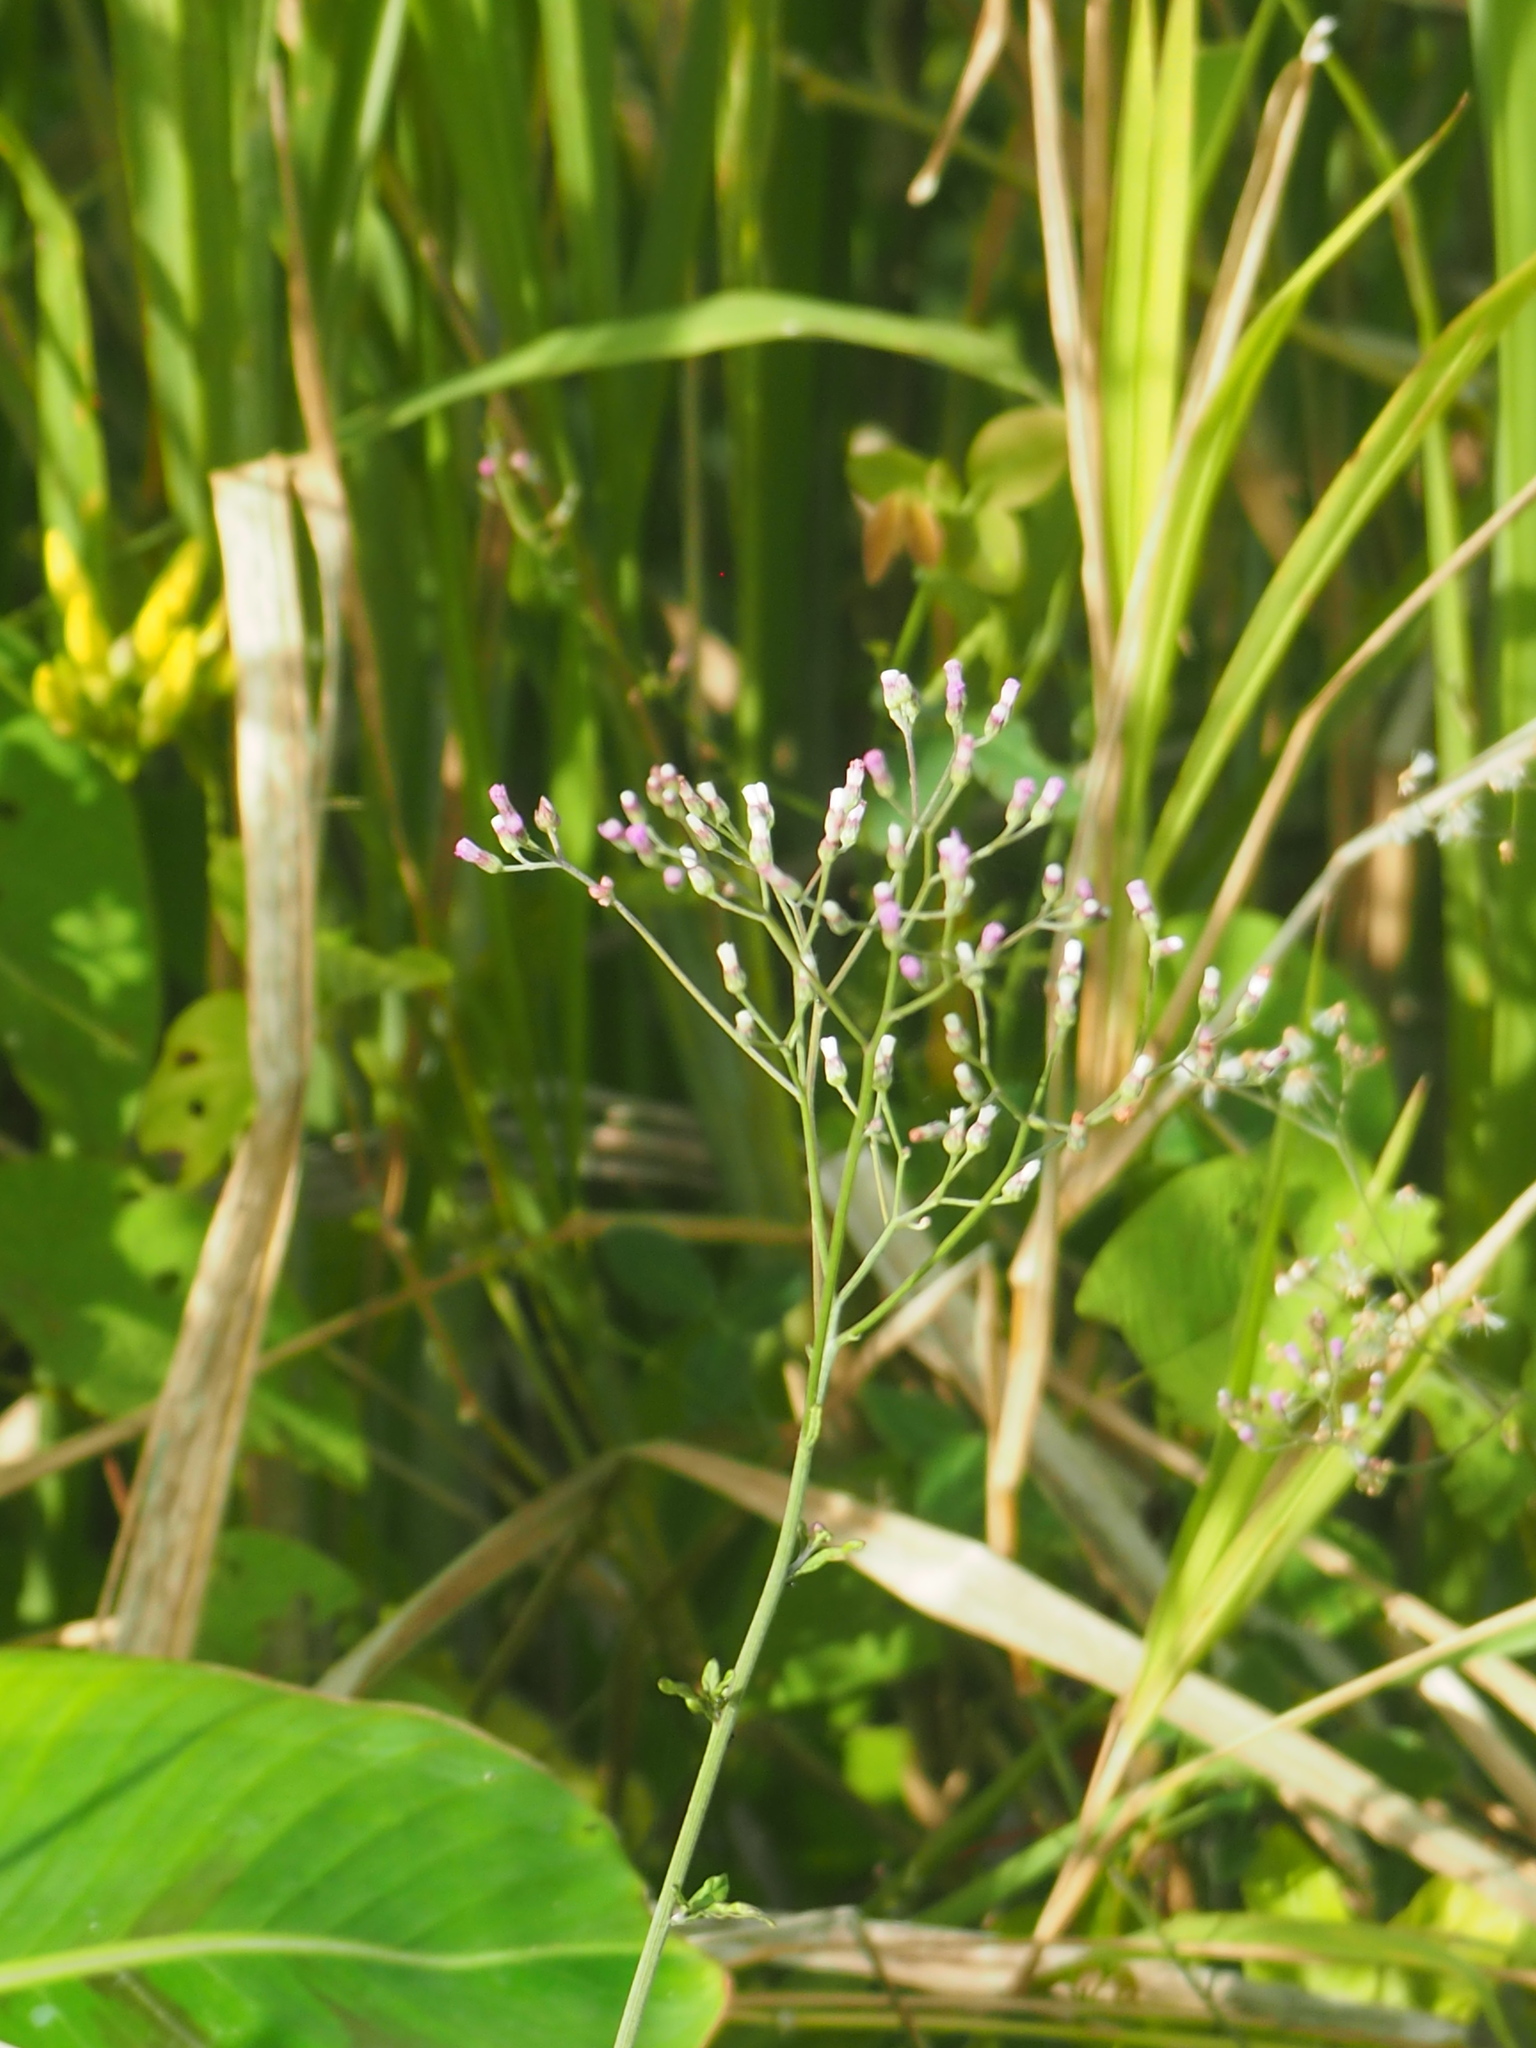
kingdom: Plantae
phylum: Tracheophyta
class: Magnoliopsida
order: Asterales
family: Asteraceae
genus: Cyanthillium
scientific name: Cyanthillium cinereum
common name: Little ironweed
